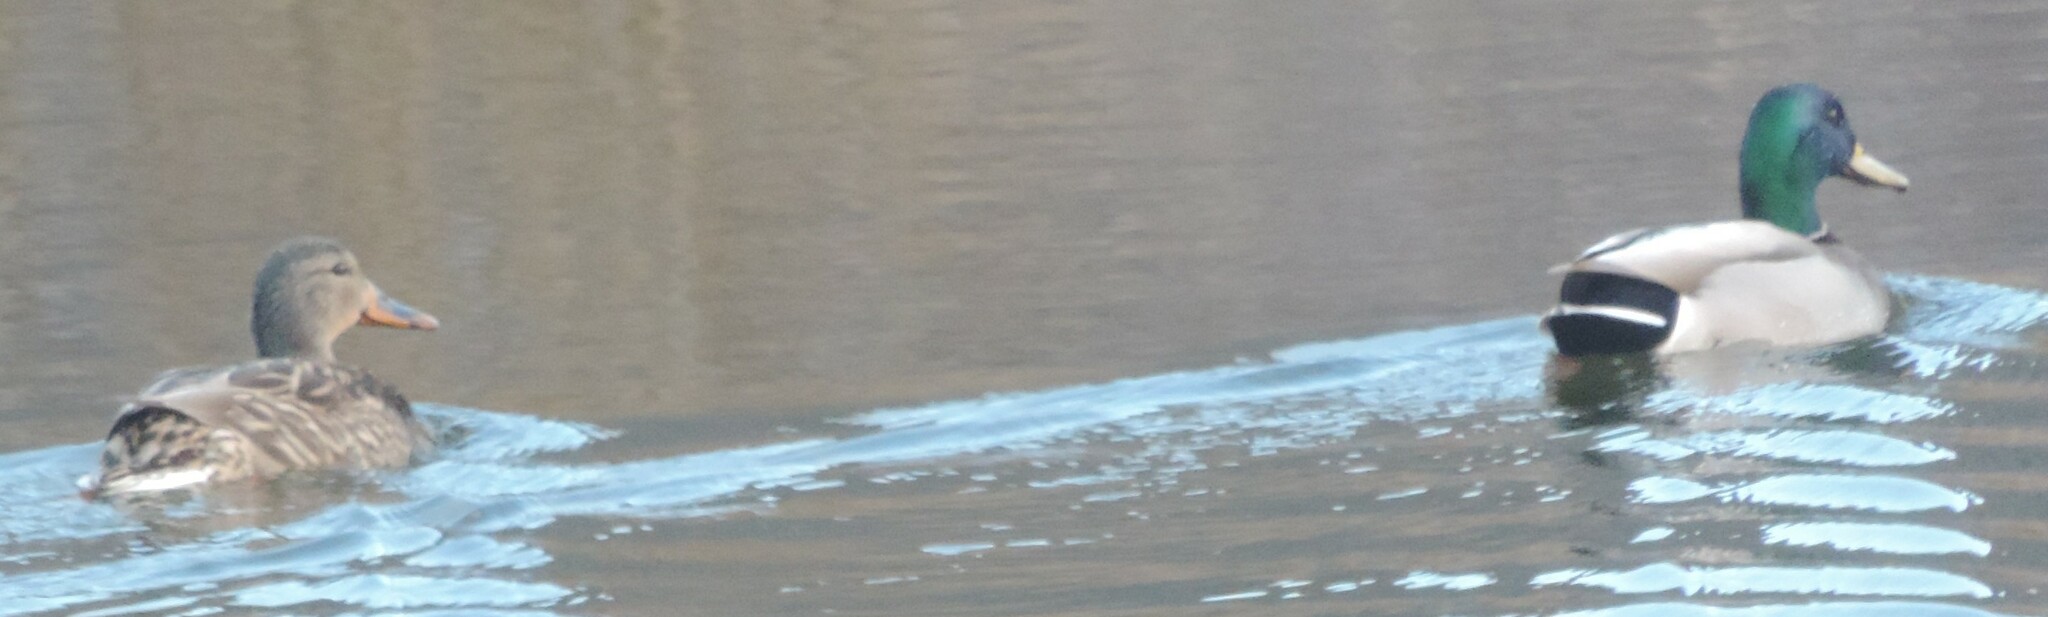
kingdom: Animalia
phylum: Chordata
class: Aves
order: Anseriformes
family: Anatidae
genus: Anas
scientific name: Anas platyrhynchos
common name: Mallard
